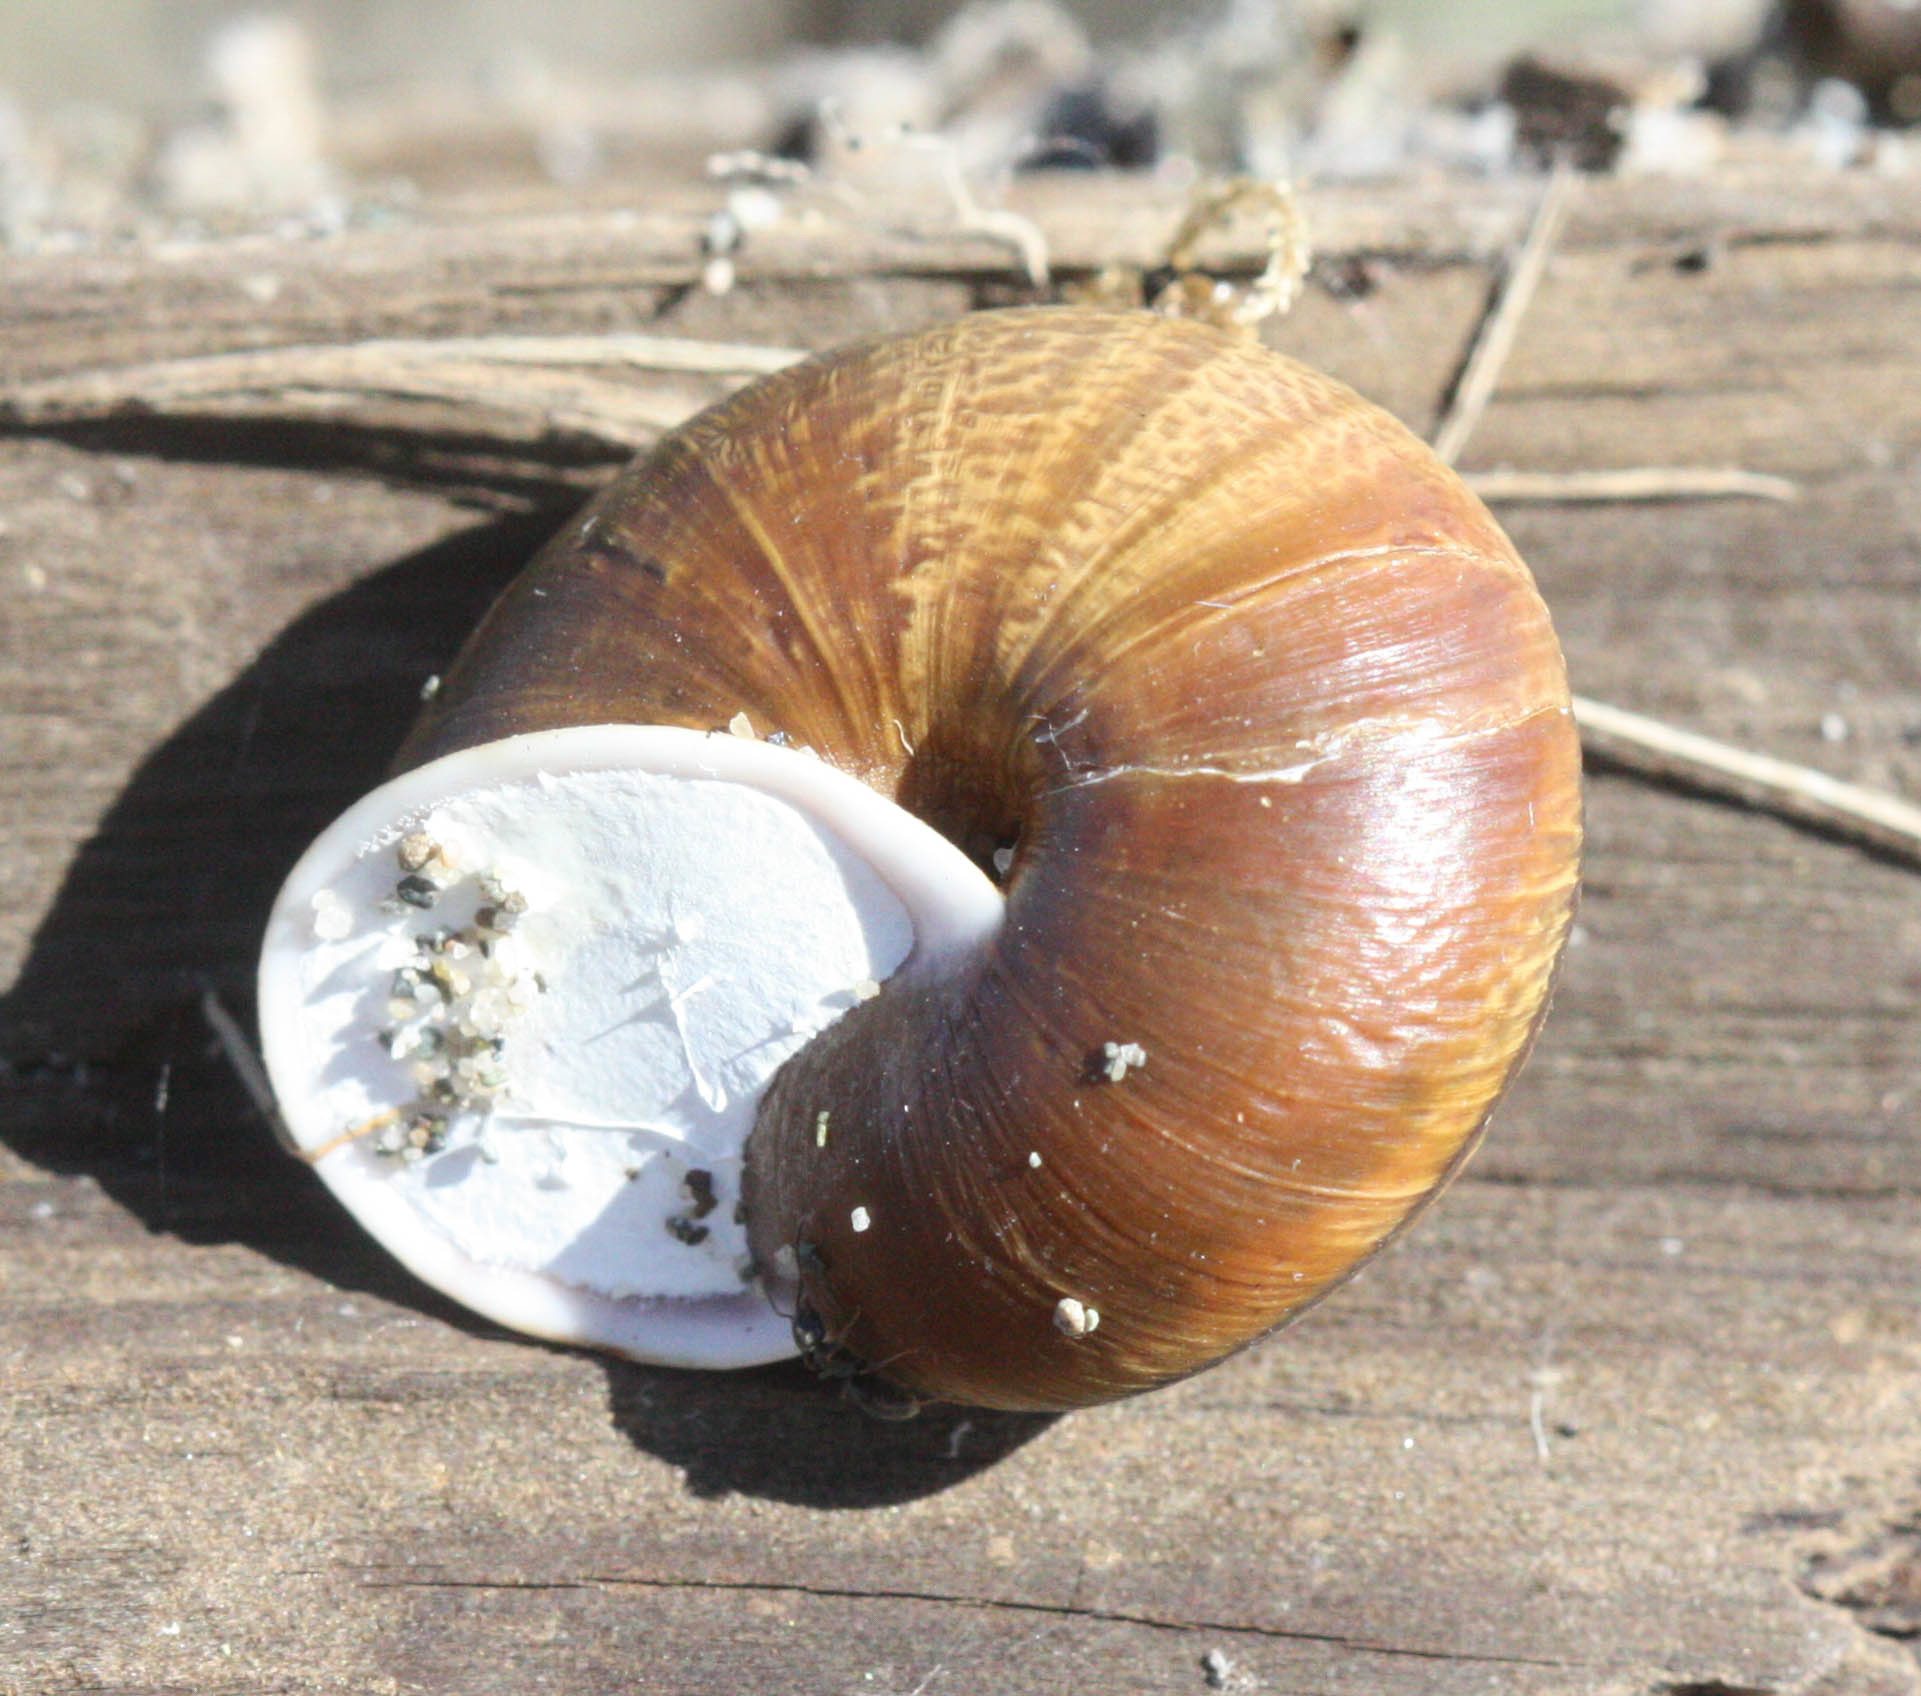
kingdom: Animalia
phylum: Mollusca
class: Gastropoda
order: Stylommatophora
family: Xanthonychidae
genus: Helminthoglypta
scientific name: Helminthoglypta arrosa
